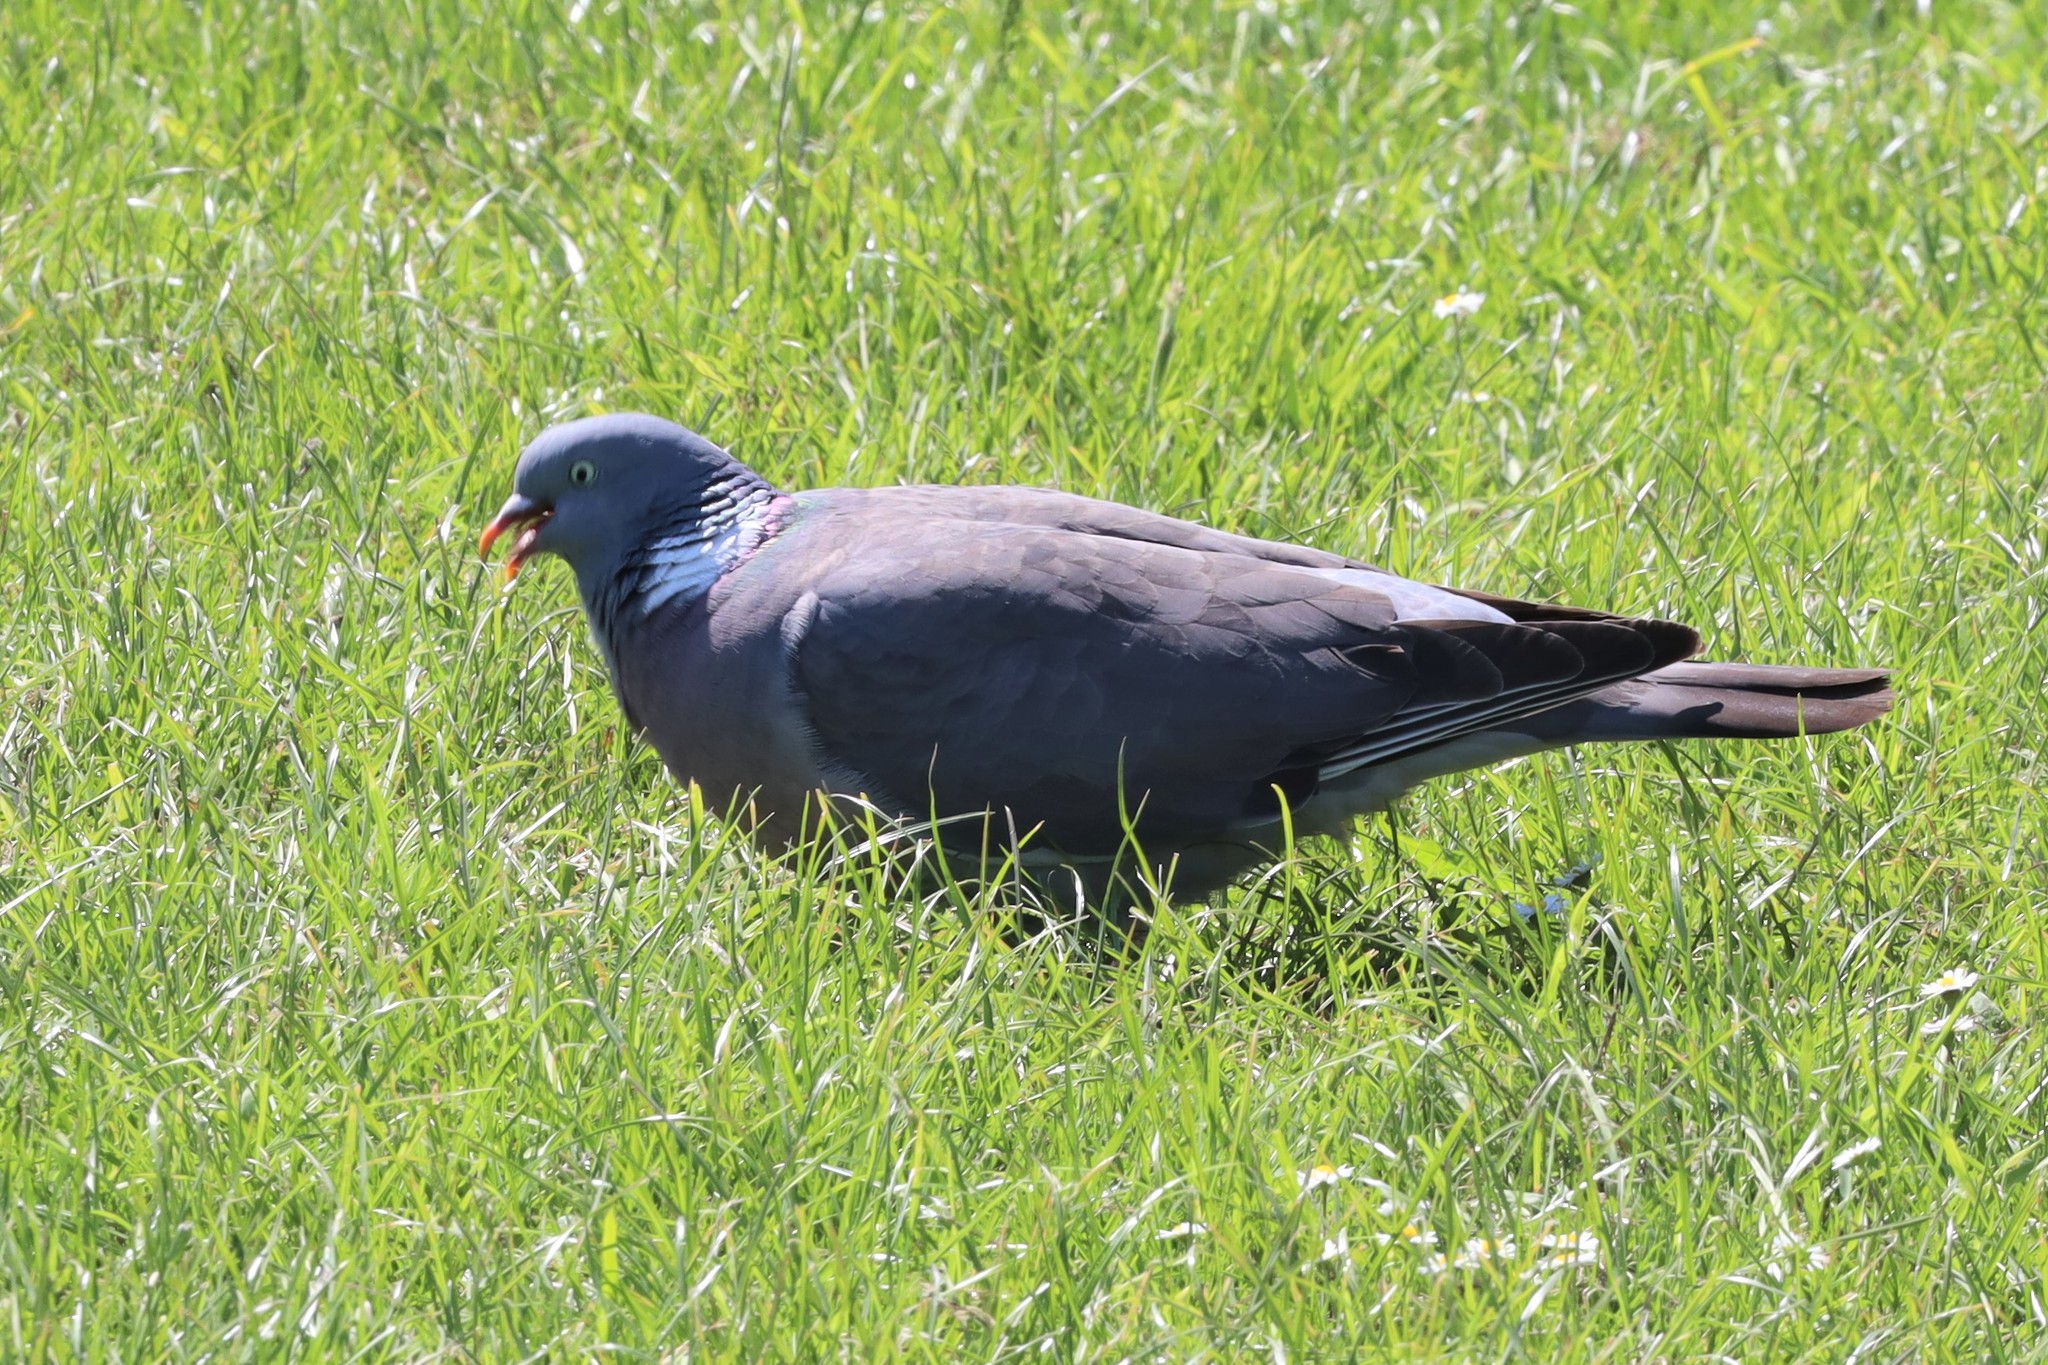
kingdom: Animalia
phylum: Chordata
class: Aves
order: Columbiformes
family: Columbidae
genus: Columba
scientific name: Columba palumbus
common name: Common wood pigeon
